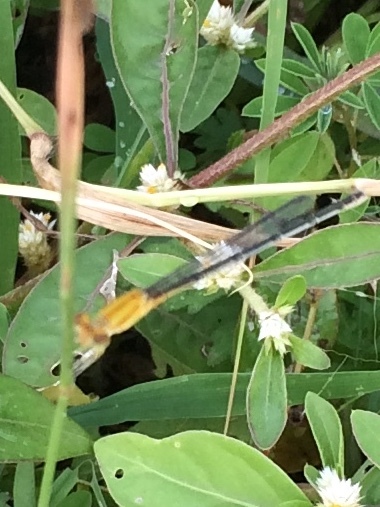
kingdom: Animalia
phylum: Arthropoda
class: Insecta
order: Odonata
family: Coenagrionidae
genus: Pseudagrion
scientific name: Pseudagrion decorum
